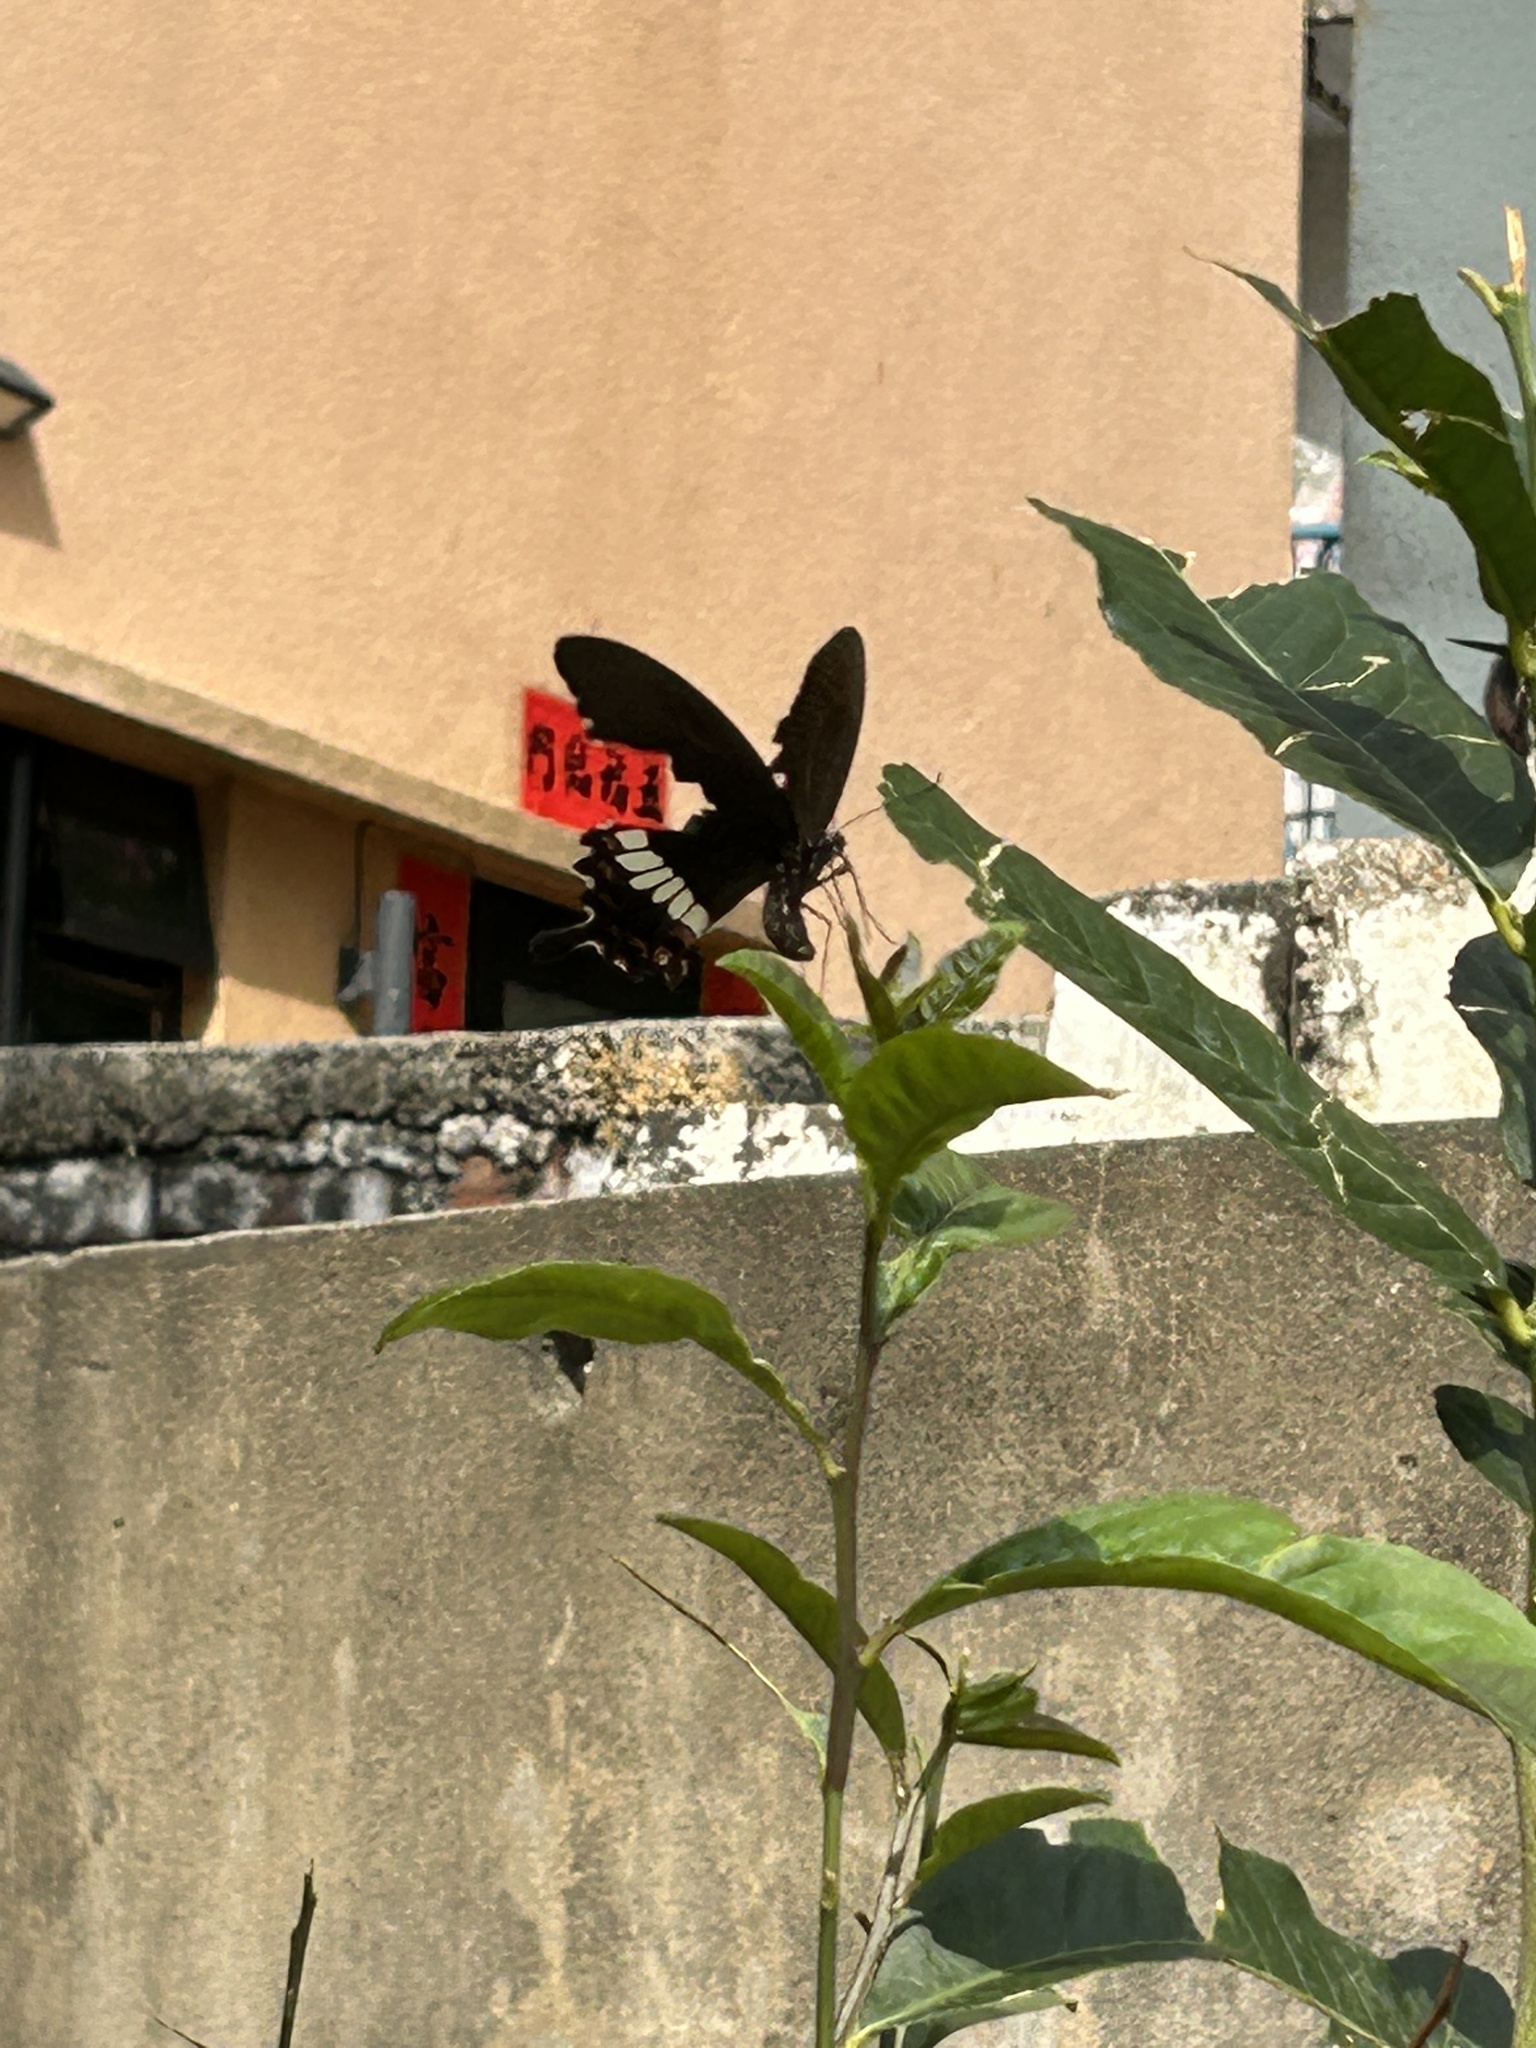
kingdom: Animalia
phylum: Arthropoda
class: Insecta
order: Lepidoptera
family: Papilionidae
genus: Papilio
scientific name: Papilio polytes
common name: Common mormon
